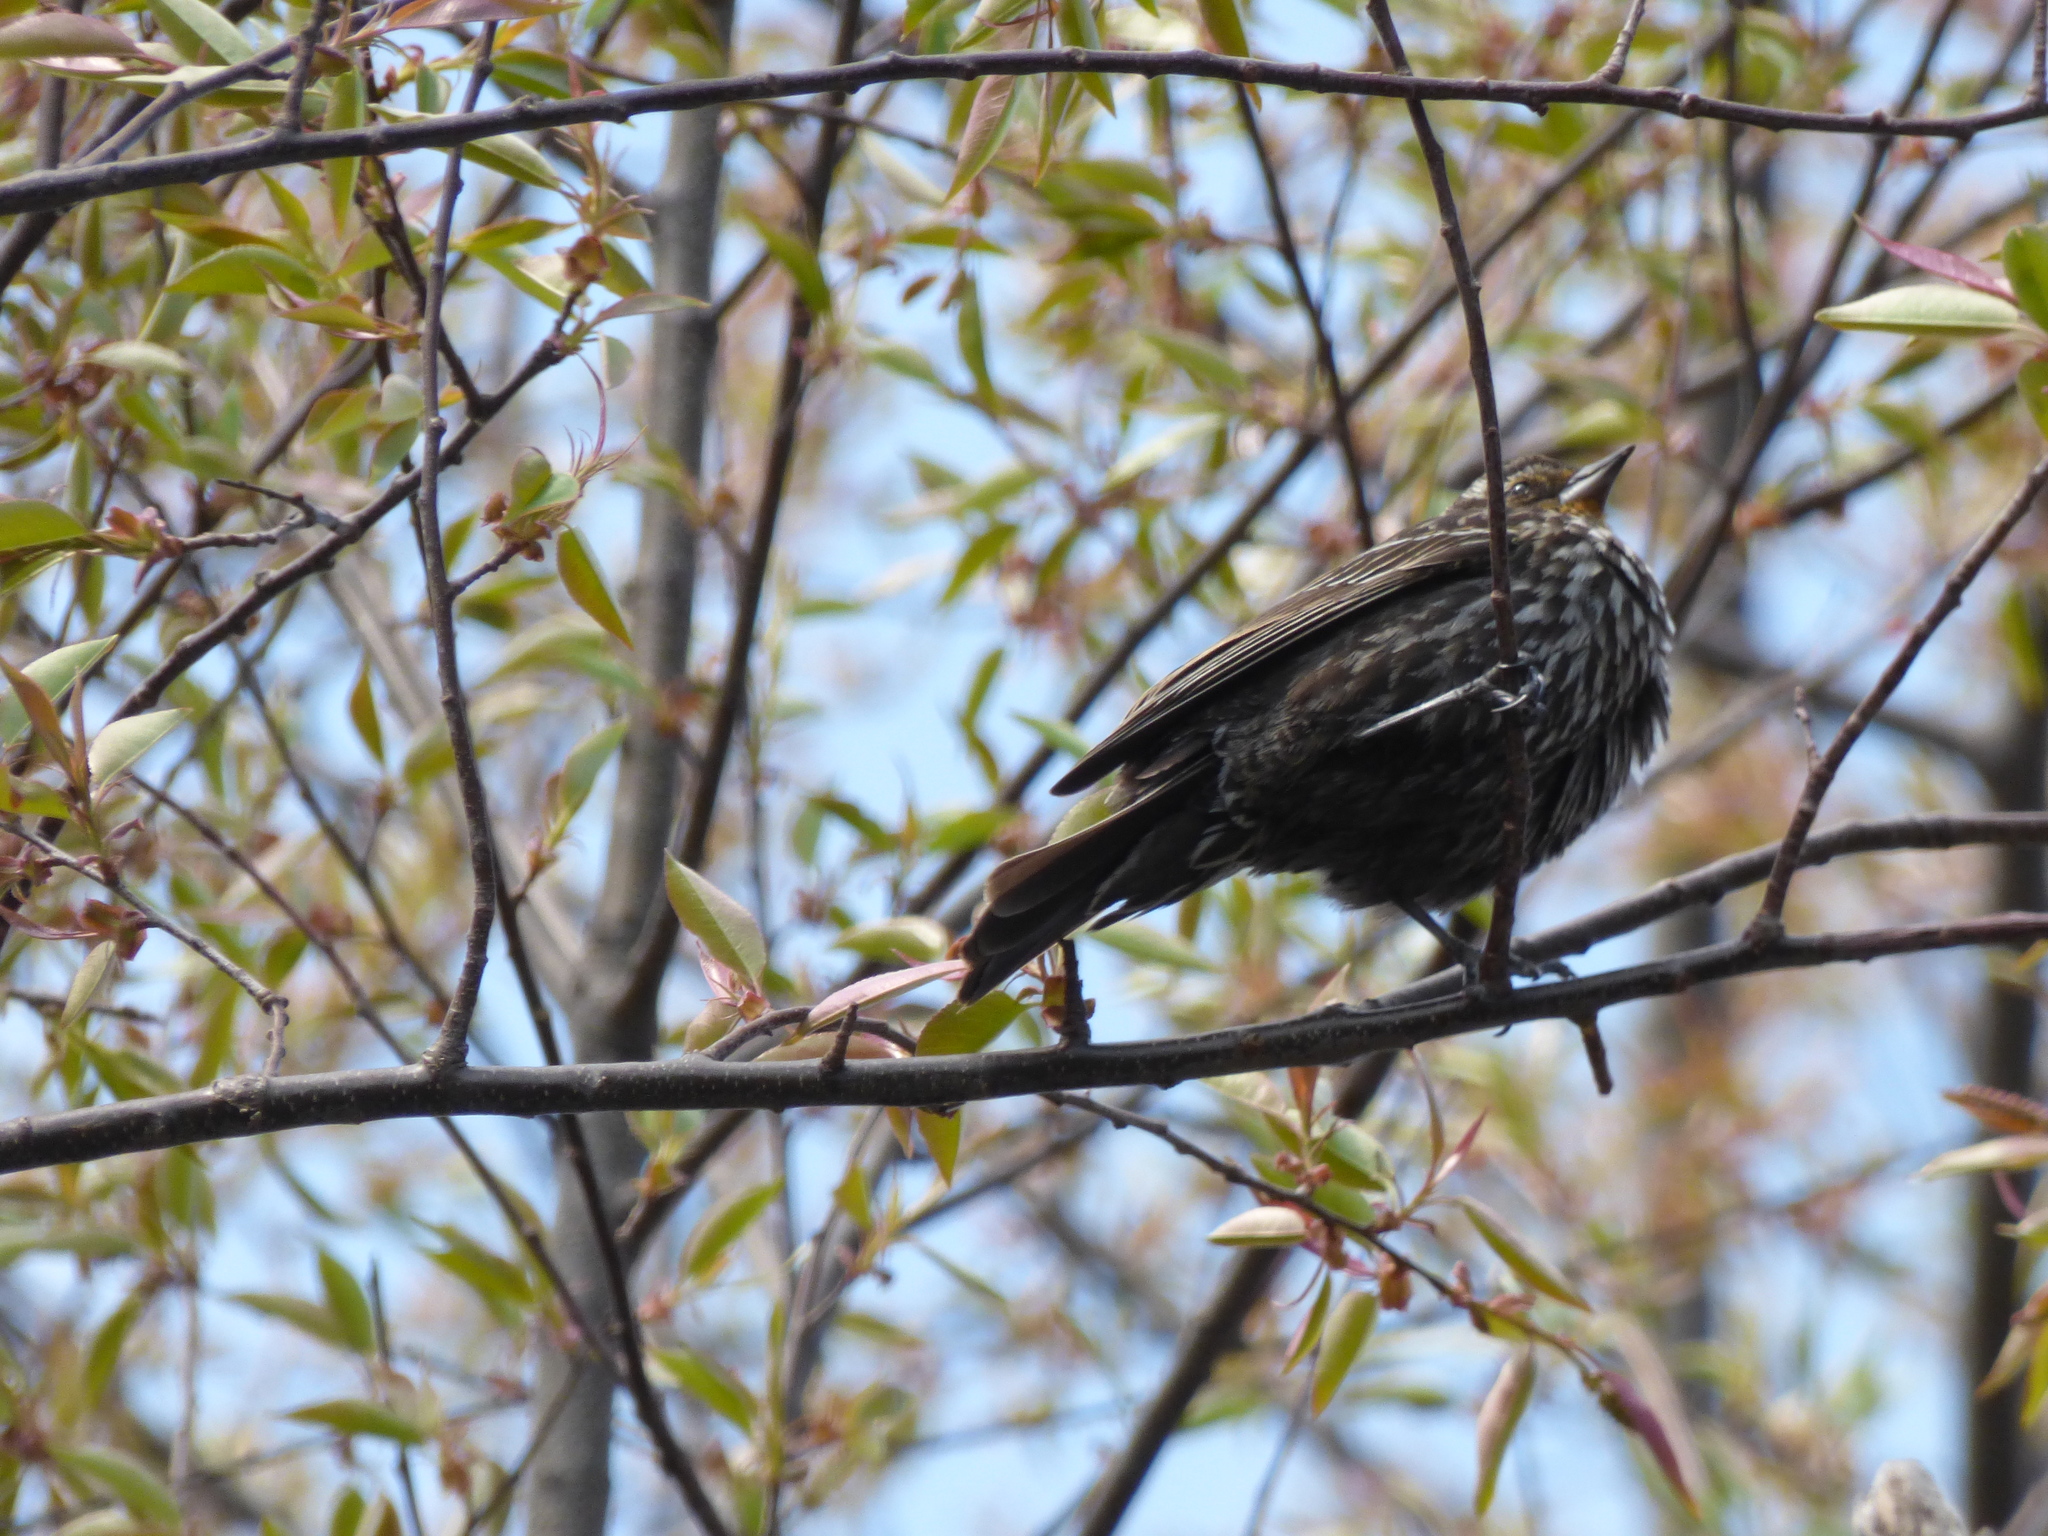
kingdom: Animalia
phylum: Chordata
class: Aves
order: Passeriformes
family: Icteridae
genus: Agelaius
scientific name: Agelaius phoeniceus
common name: Red-winged blackbird
